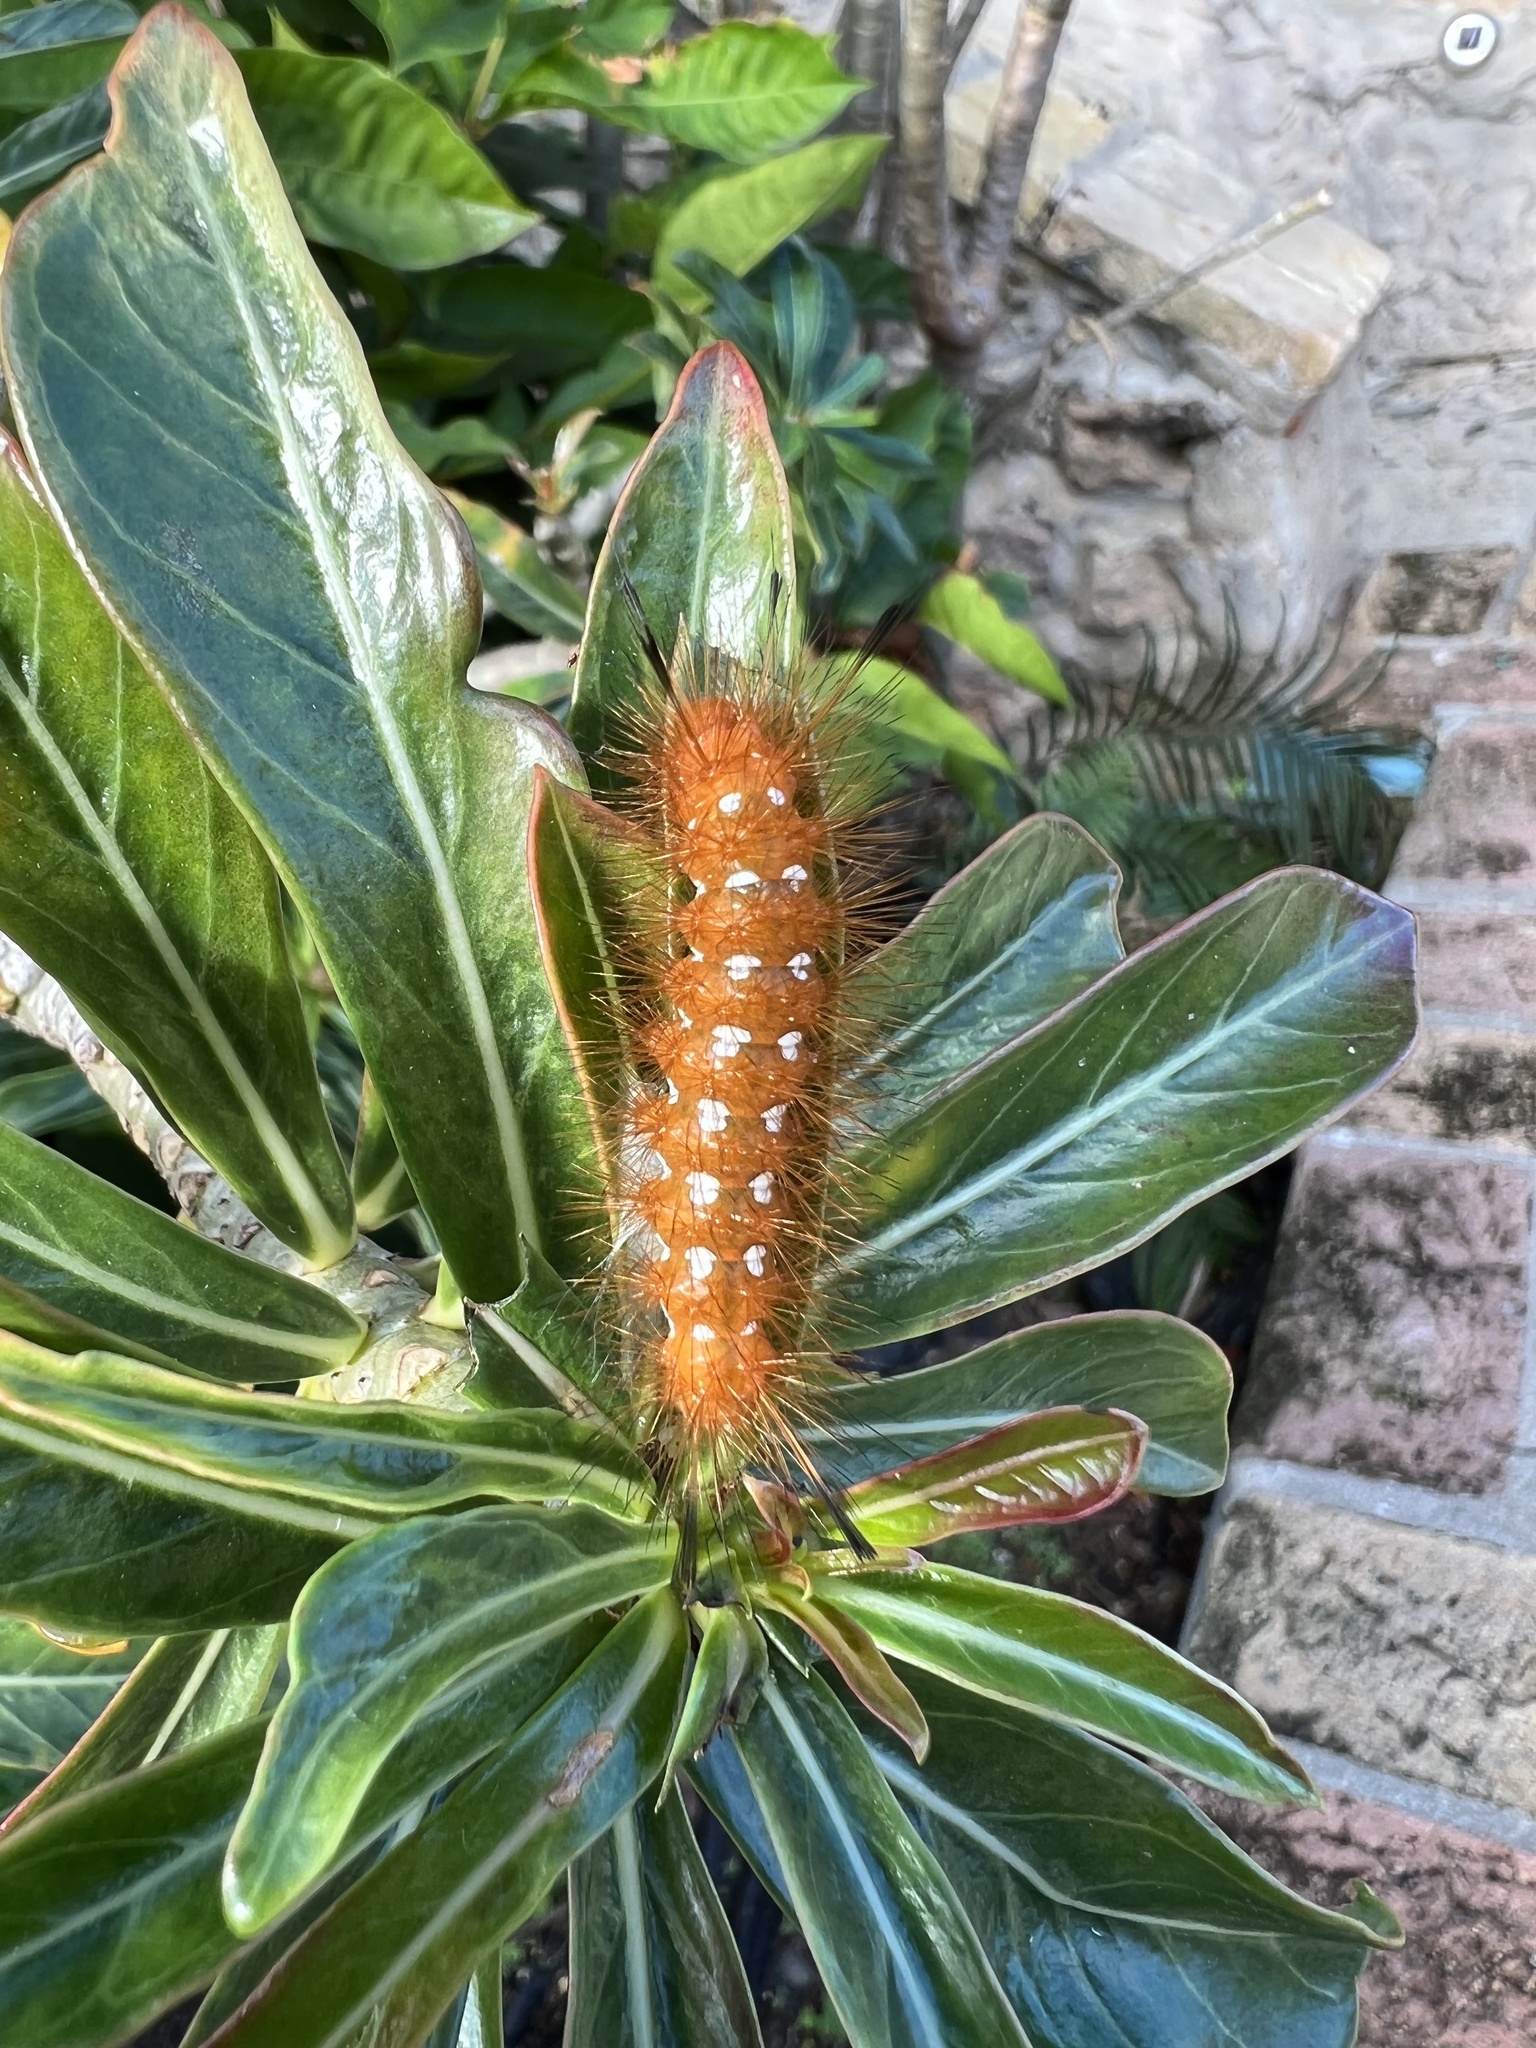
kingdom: Animalia
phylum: Arthropoda
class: Insecta
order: Lepidoptera
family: Erebidae
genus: Empyreuma
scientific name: Empyreuma pugione
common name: Spotted oleander caterpillar moth
